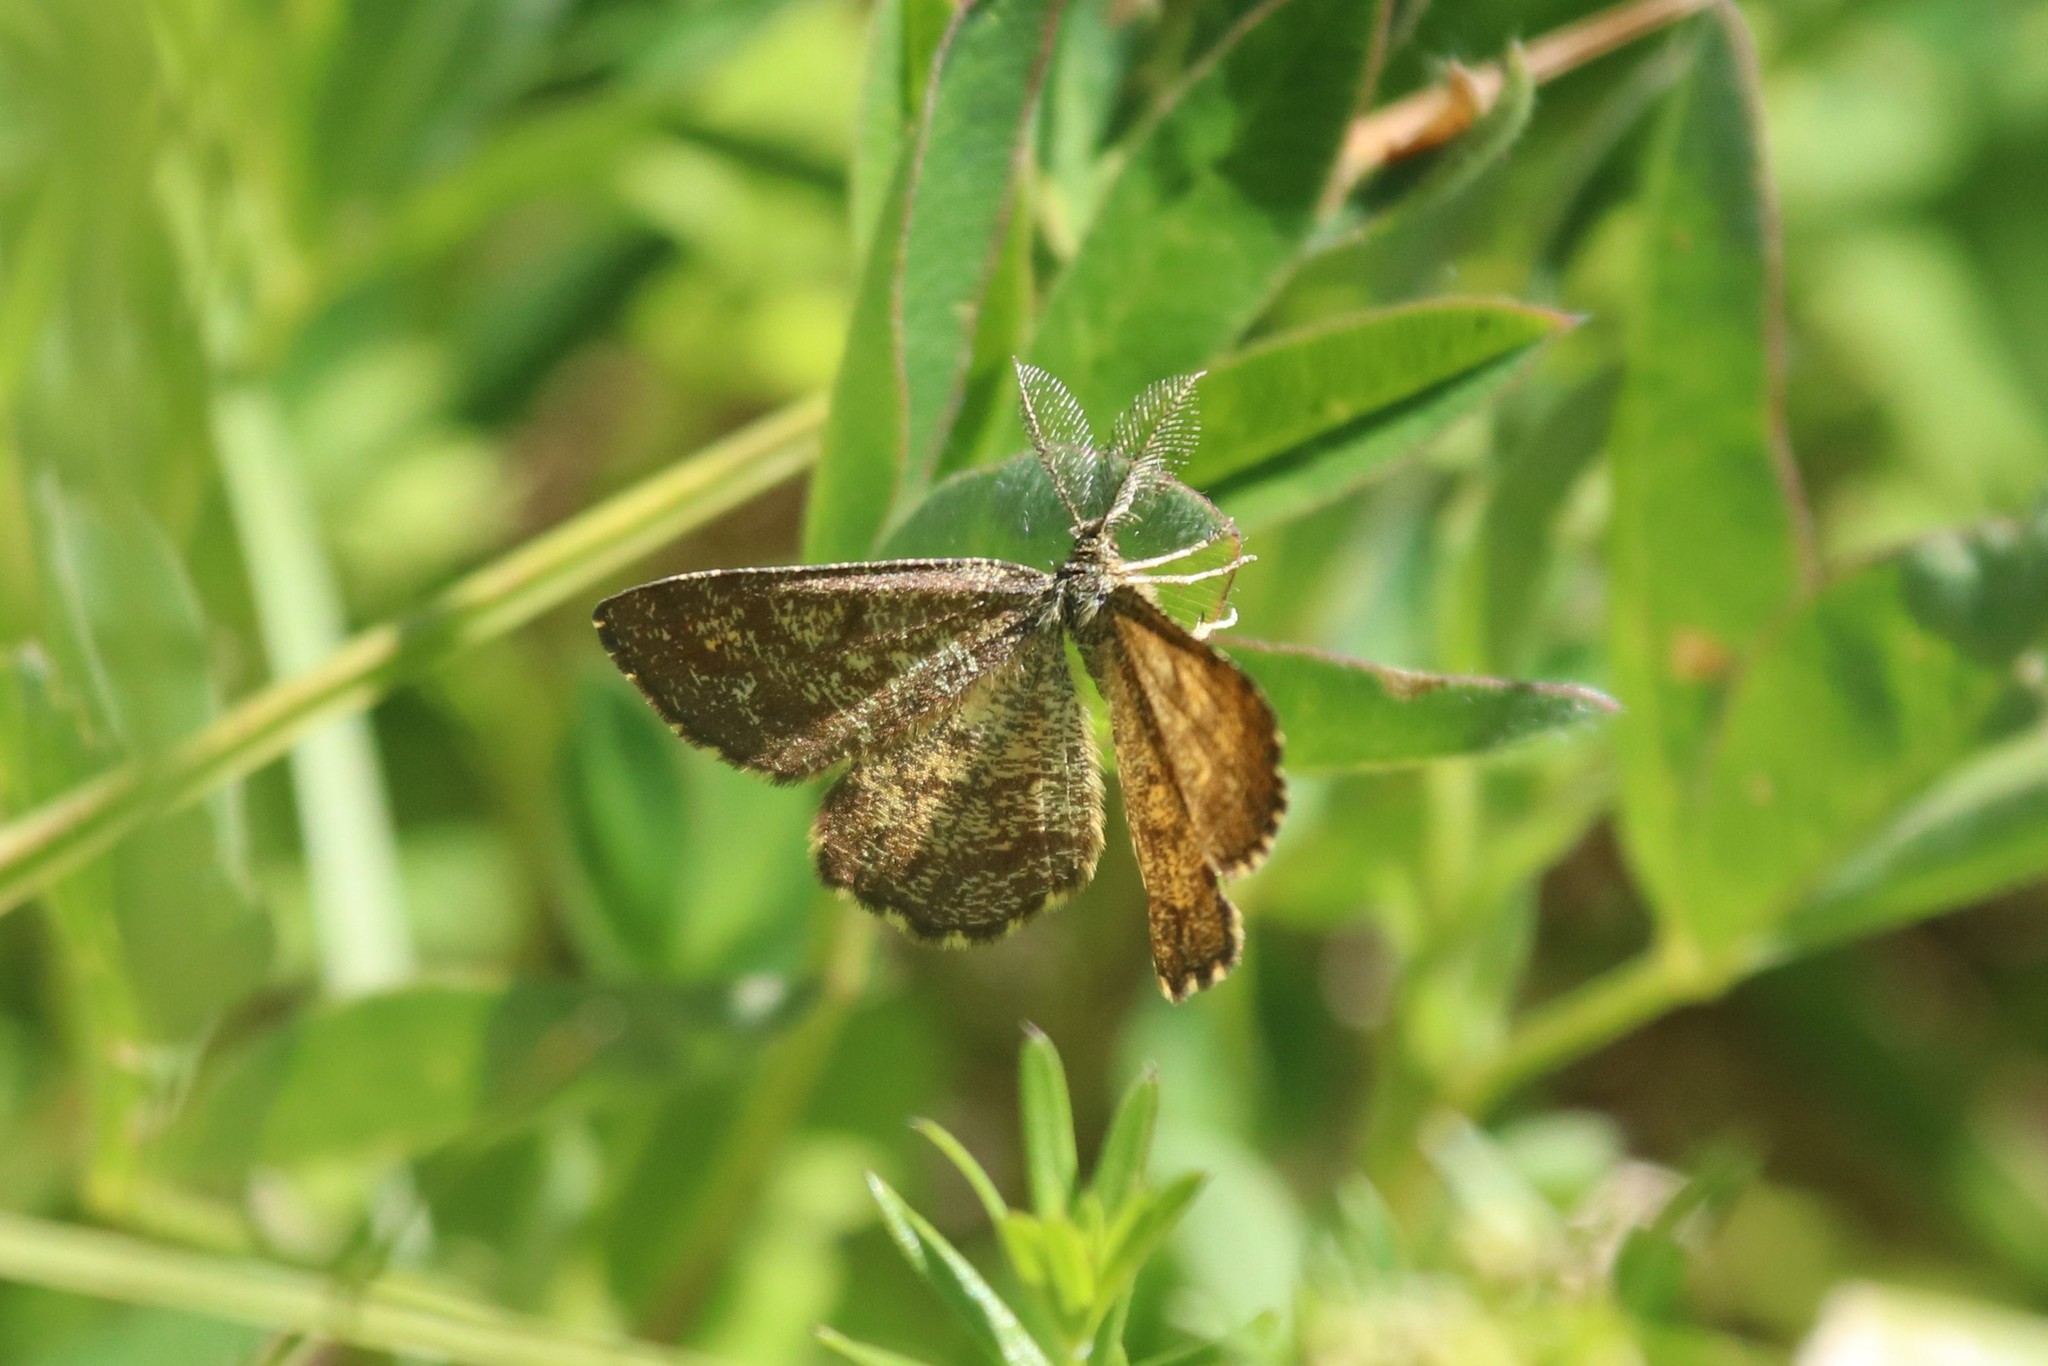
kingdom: Animalia
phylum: Arthropoda
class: Insecta
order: Lepidoptera
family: Geometridae
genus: Ematurga
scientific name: Ematurga atomaria
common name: Common heath
